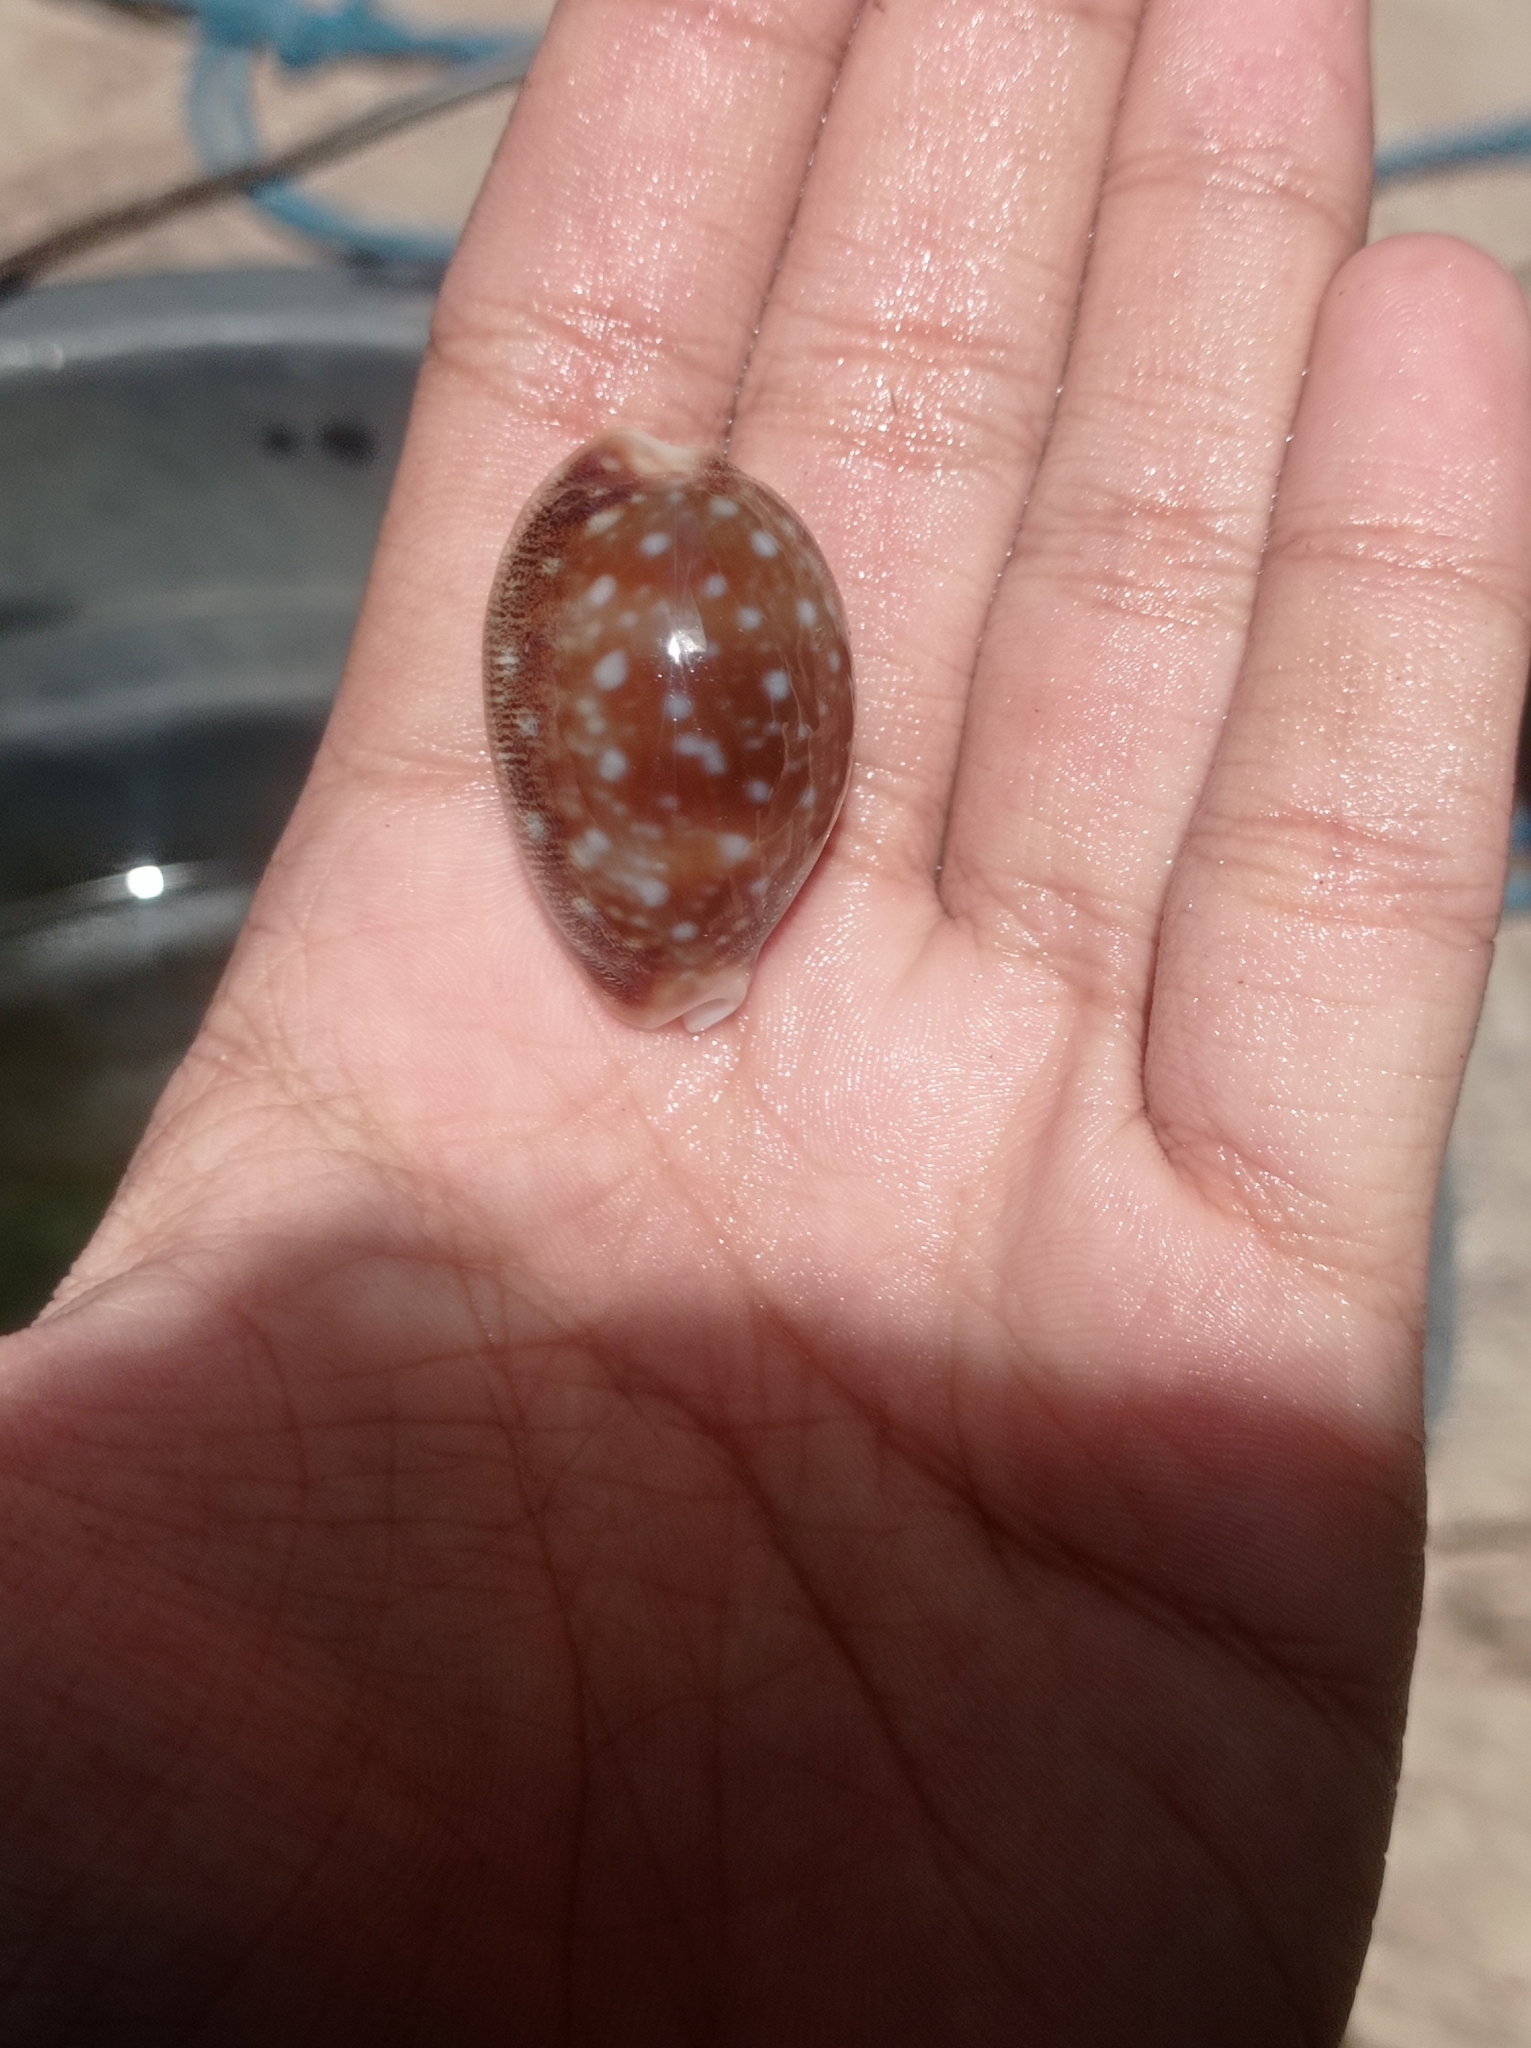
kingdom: Animalia
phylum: Mollusca
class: Gastropoda
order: Littorinimorpha
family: Cypraeidae
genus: Lyncina
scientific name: Lyncina vitellus
